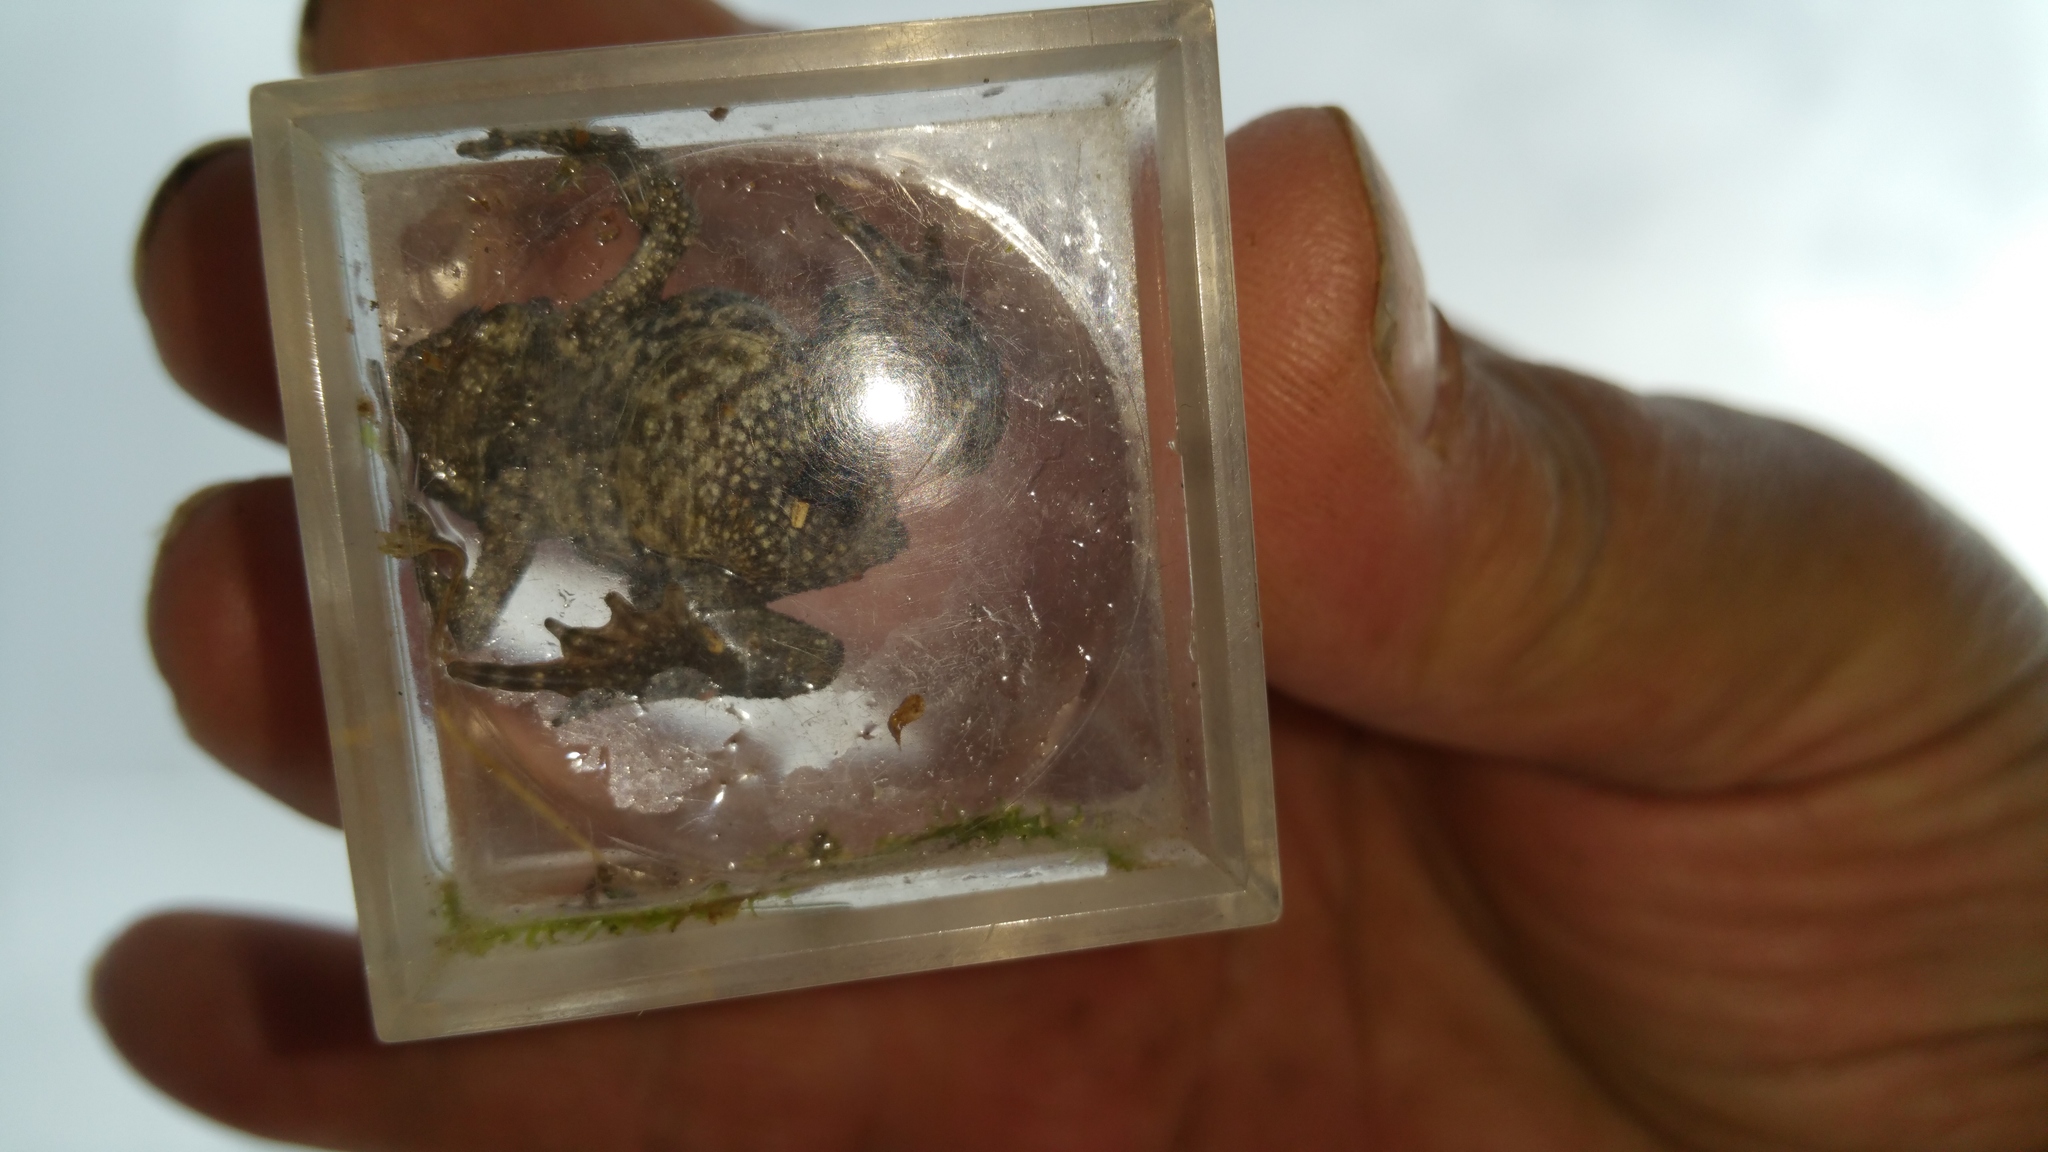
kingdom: Animalia
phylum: Chordata
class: Amphibia
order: Anura
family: Bufonidae
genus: Bufo
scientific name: Bufo bufo
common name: Common toad
